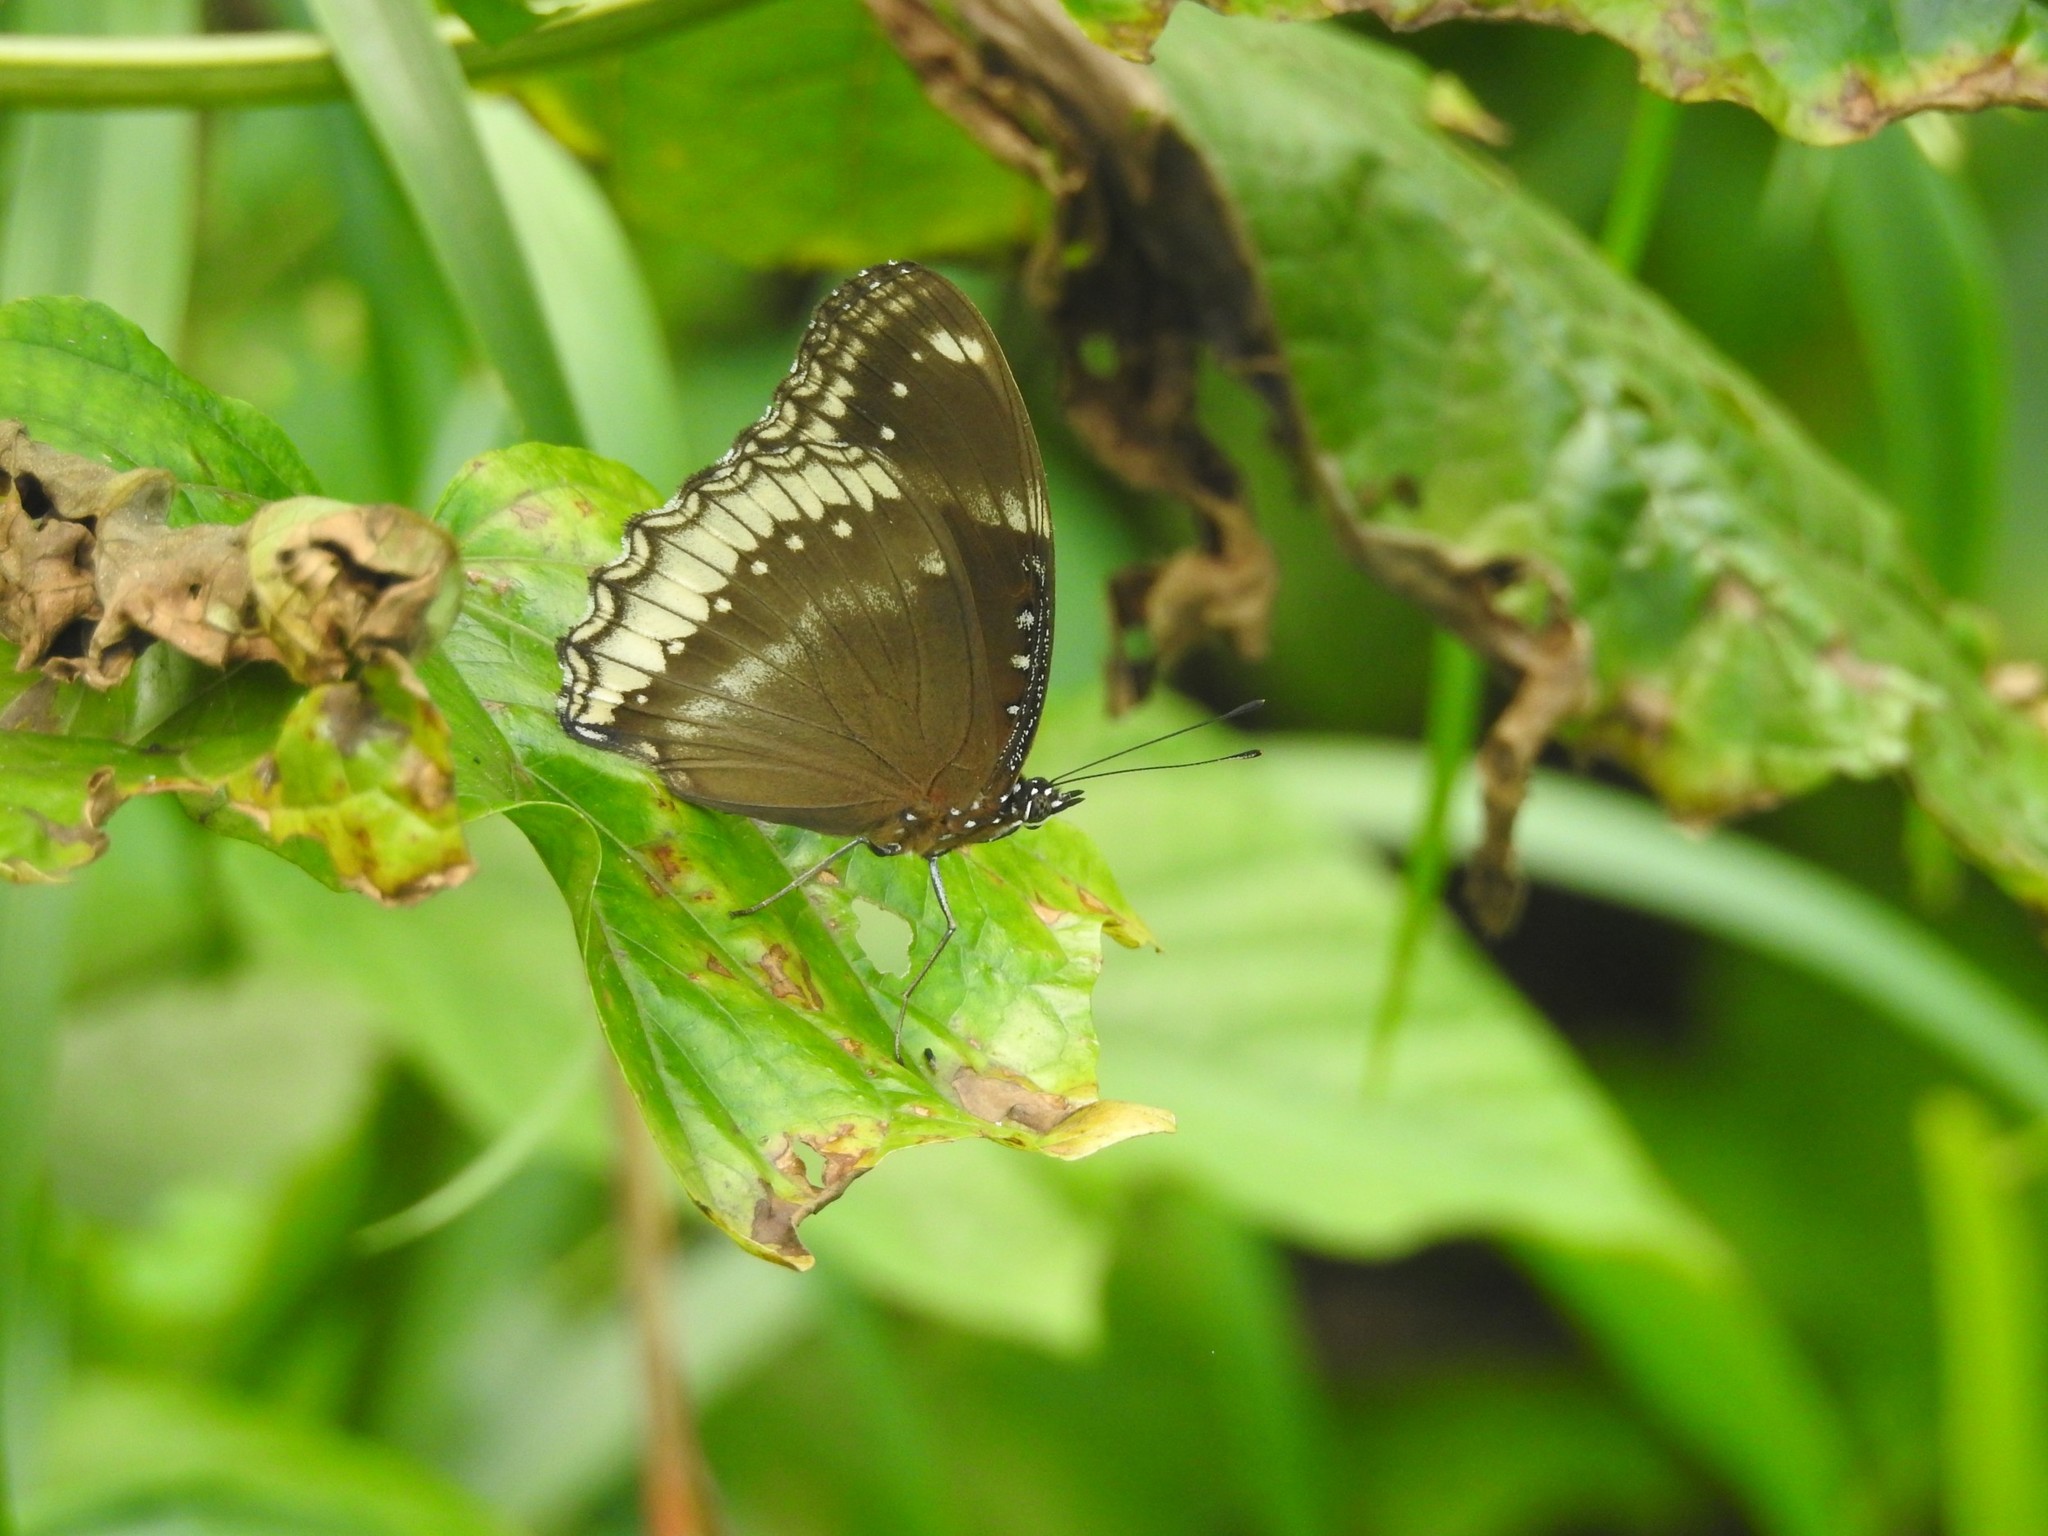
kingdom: Animalia
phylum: Arthropoda
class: Insecta
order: Lepidoptera
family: Nymphalidae
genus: Hypolimnas
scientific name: Hypolimnas bolina
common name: Great eggfly
